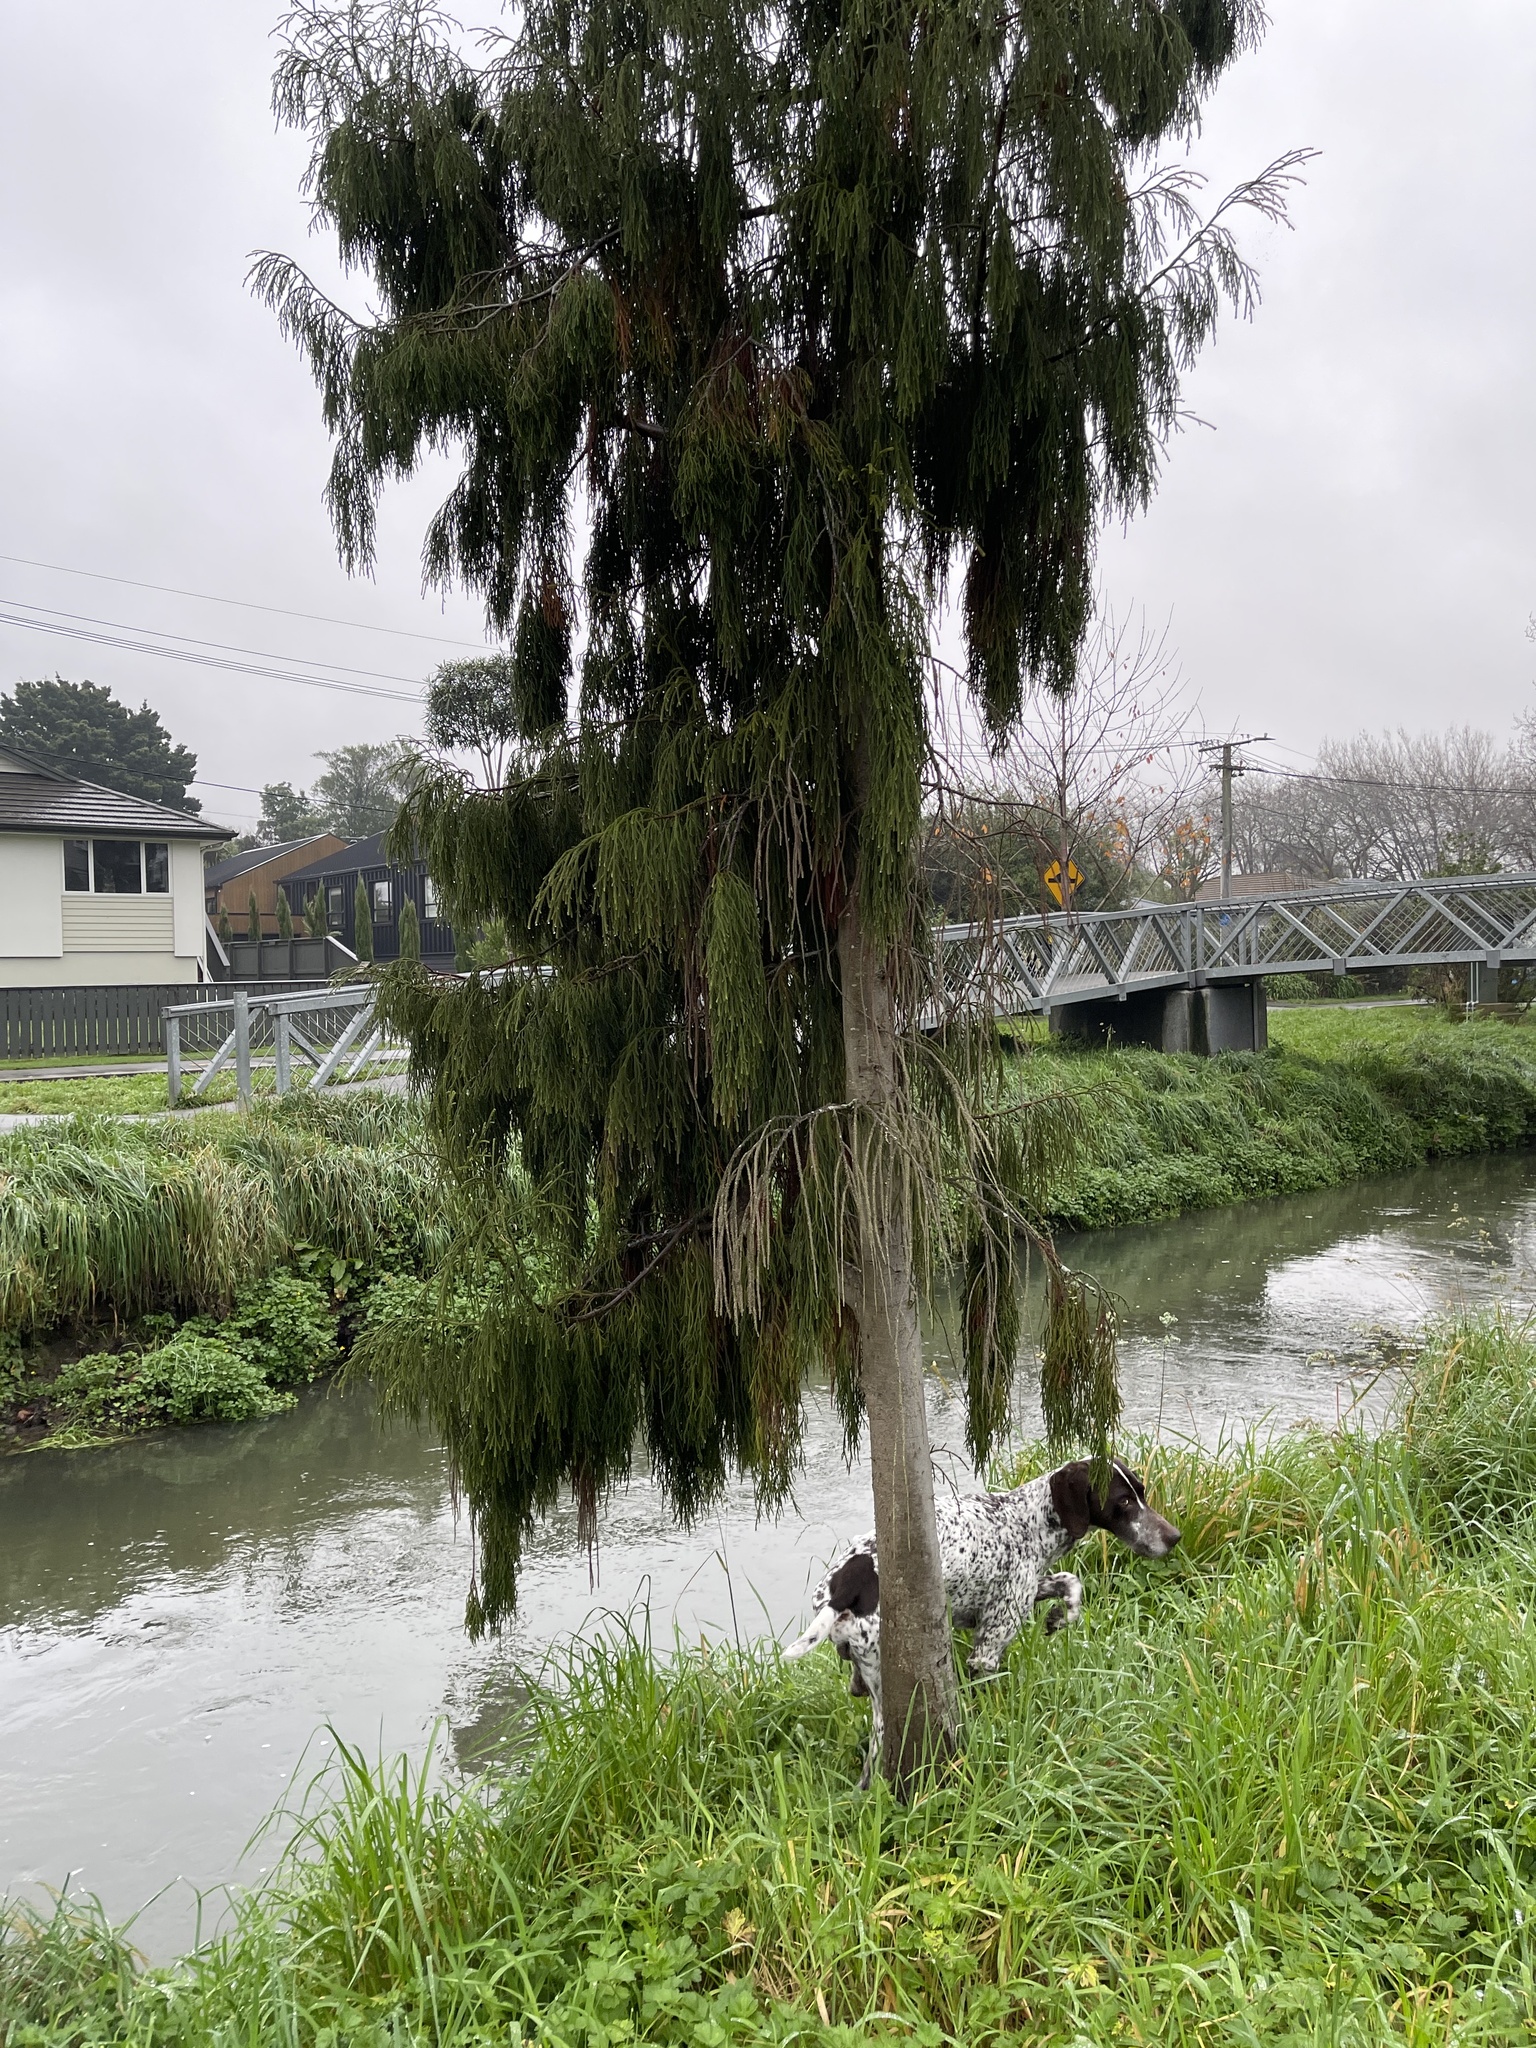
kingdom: Plantae
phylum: Tracheophyta
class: Pinopsida
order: Pinales
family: Podocarpaceae
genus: Dacrydium
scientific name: Dacrydium cupressinum
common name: Red pine
